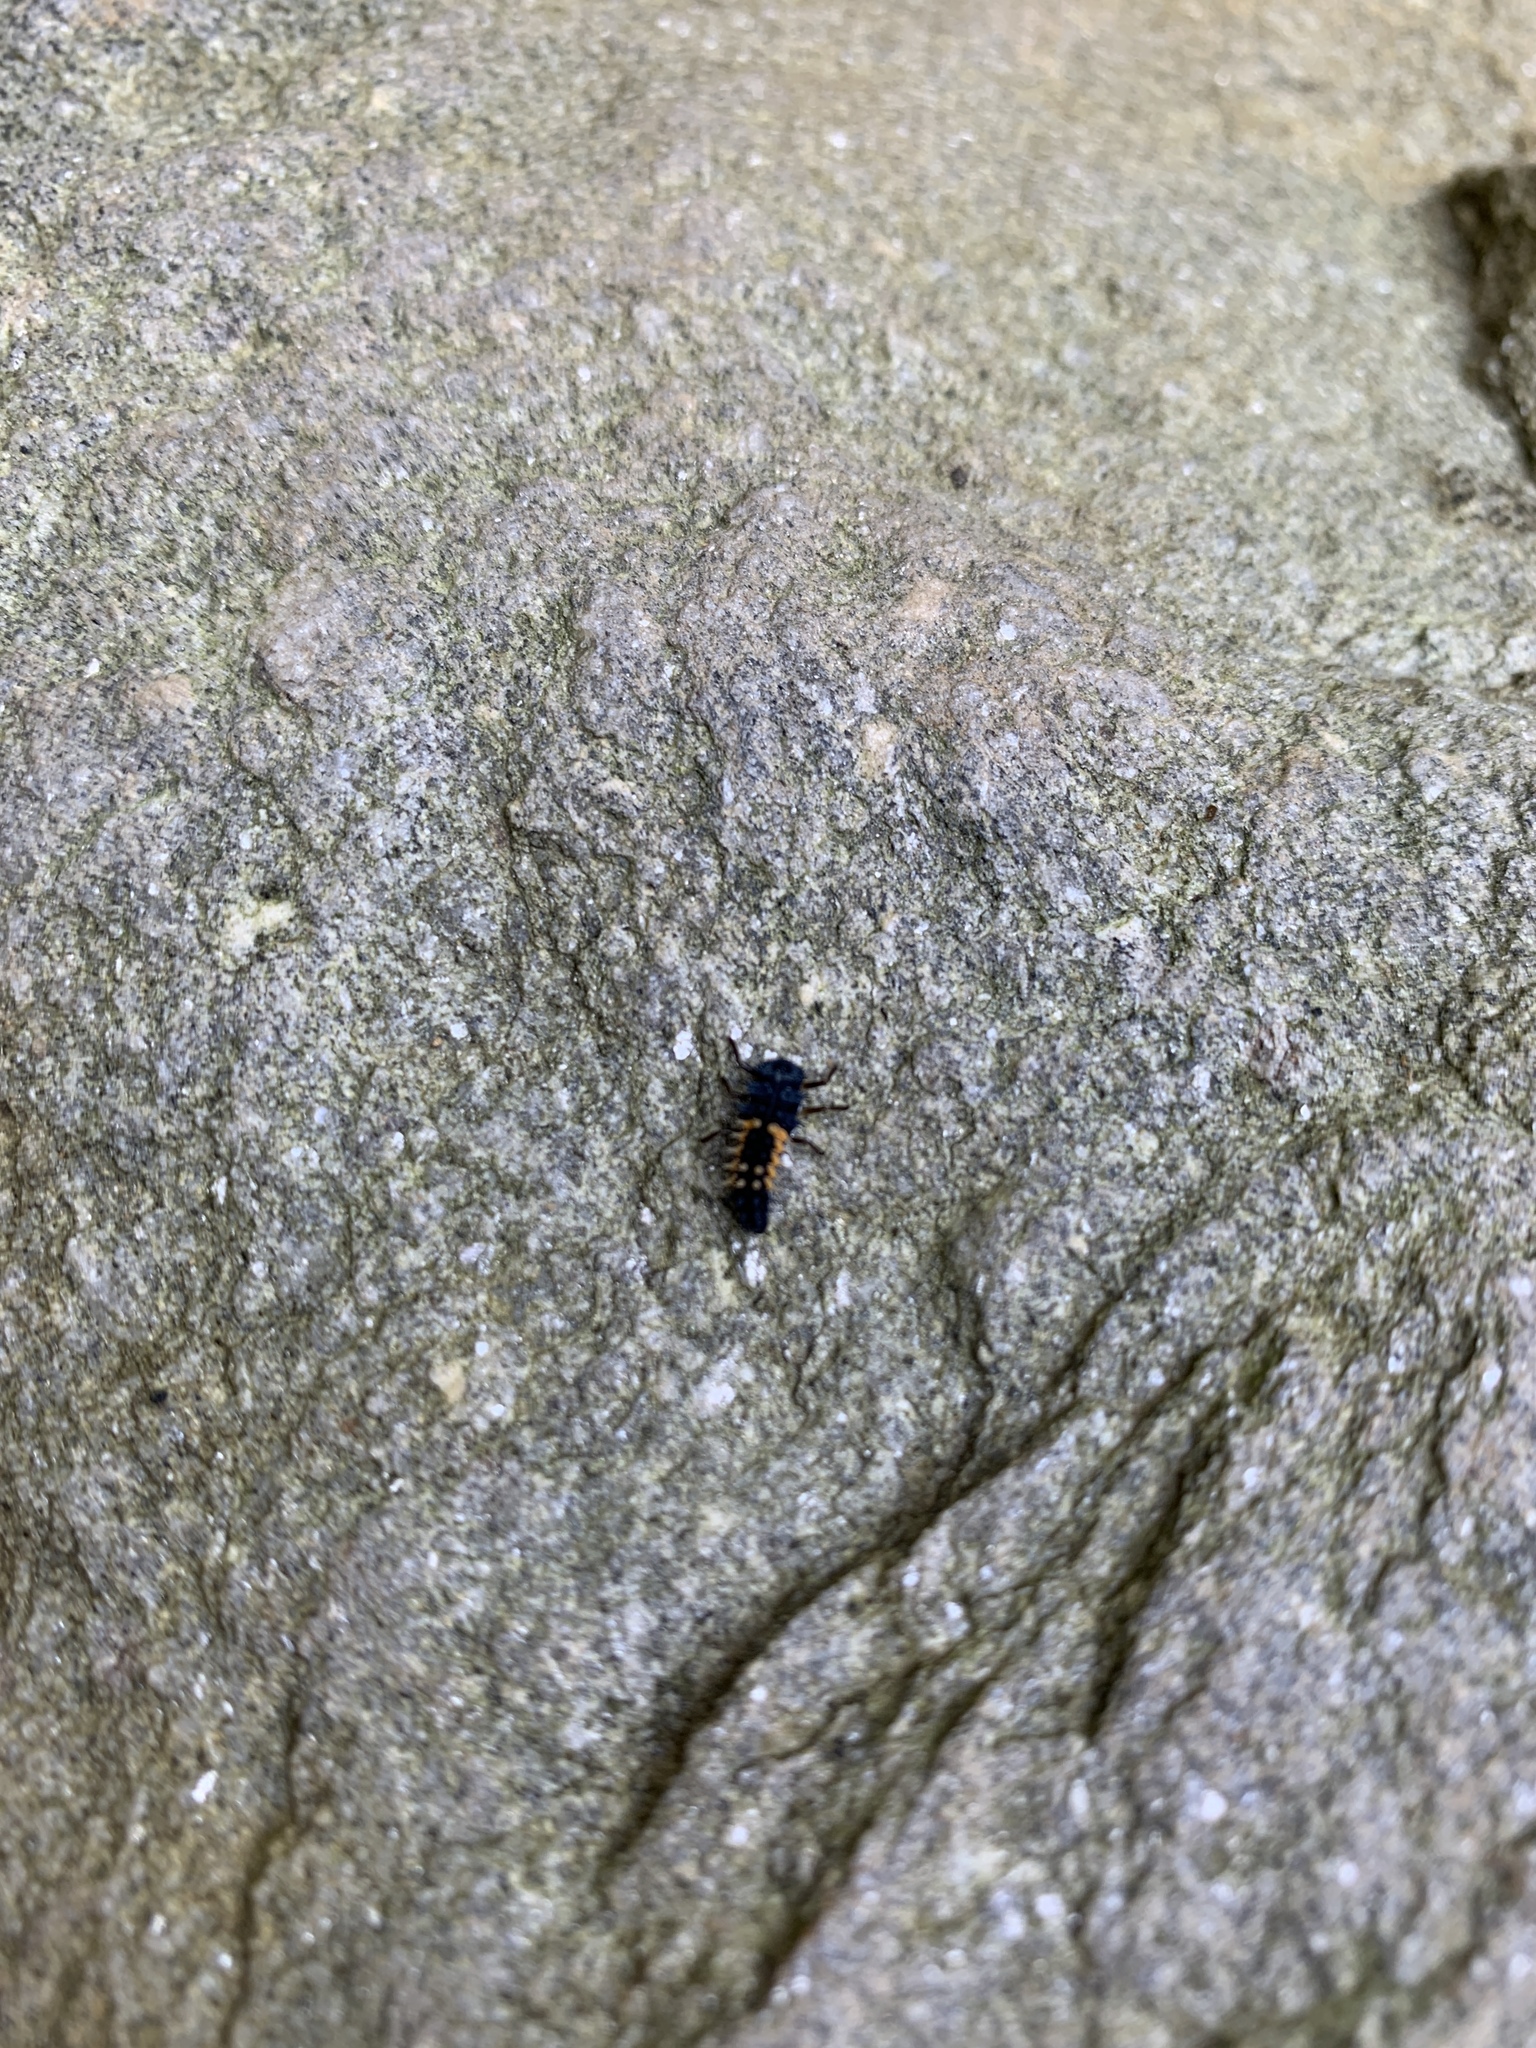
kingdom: Animalia
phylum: Arthropoda
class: Insecta
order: Coleoptera
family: Coccinellidae
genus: Harmonia
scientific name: Harmonia axyridis
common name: Harlequin ladybird
